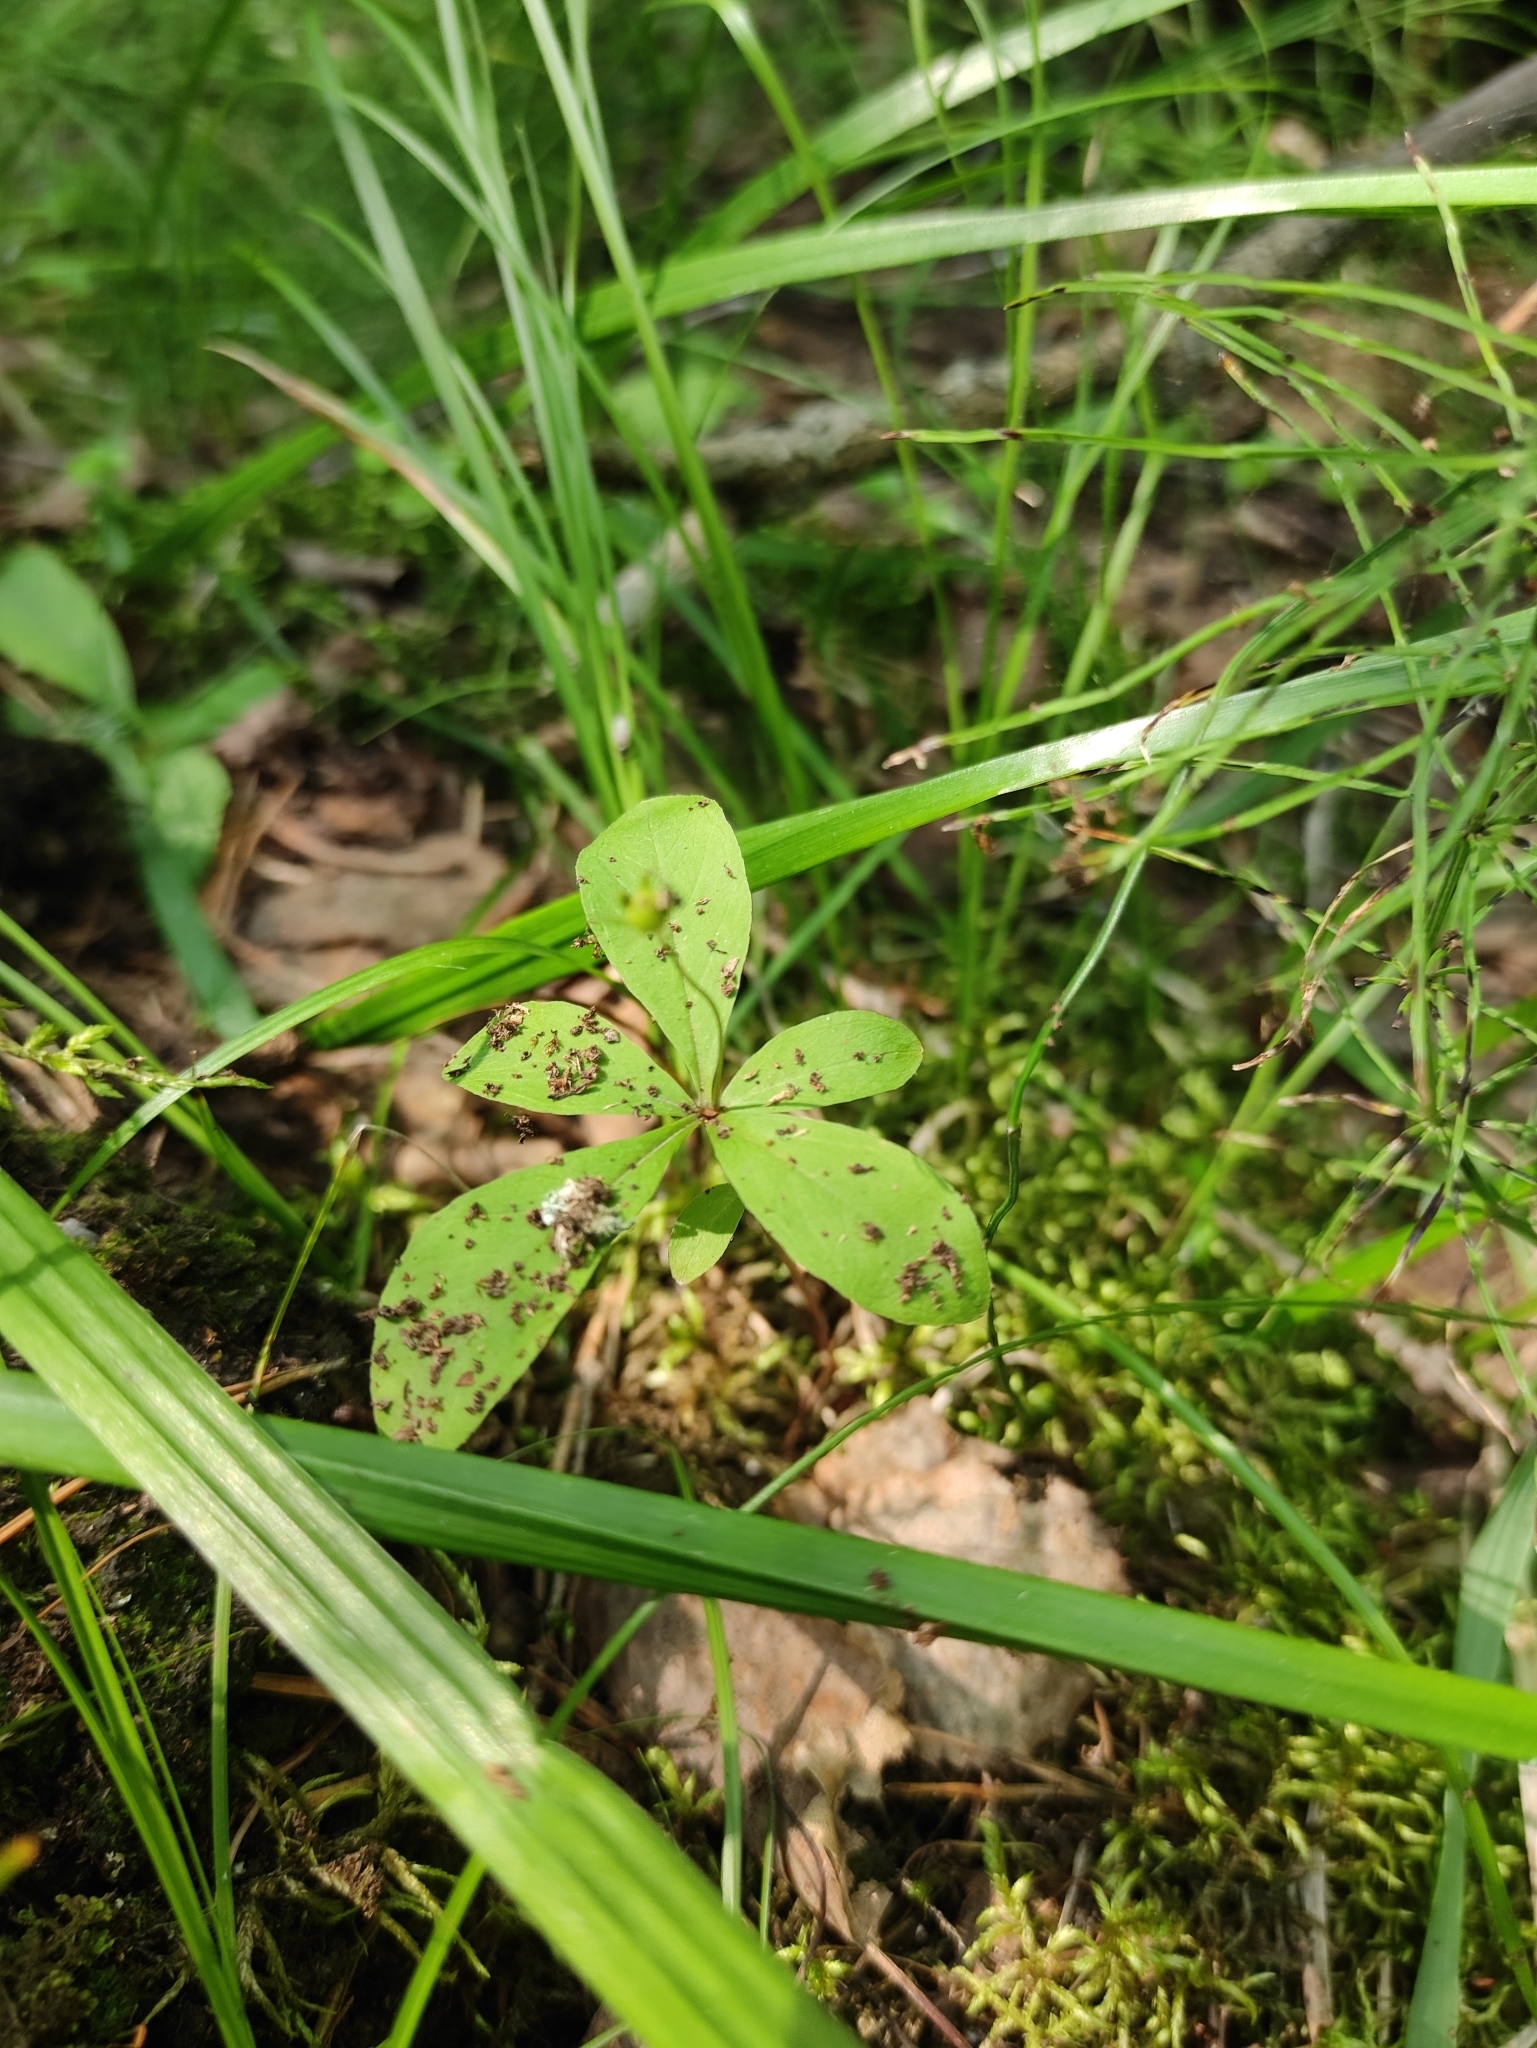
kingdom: Plantae
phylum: Tracheophyta
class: Magnoliopsida
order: Ericales
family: Primulaceae
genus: Lysimachia
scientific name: Lysimachia europaea
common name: Arctic starflower
